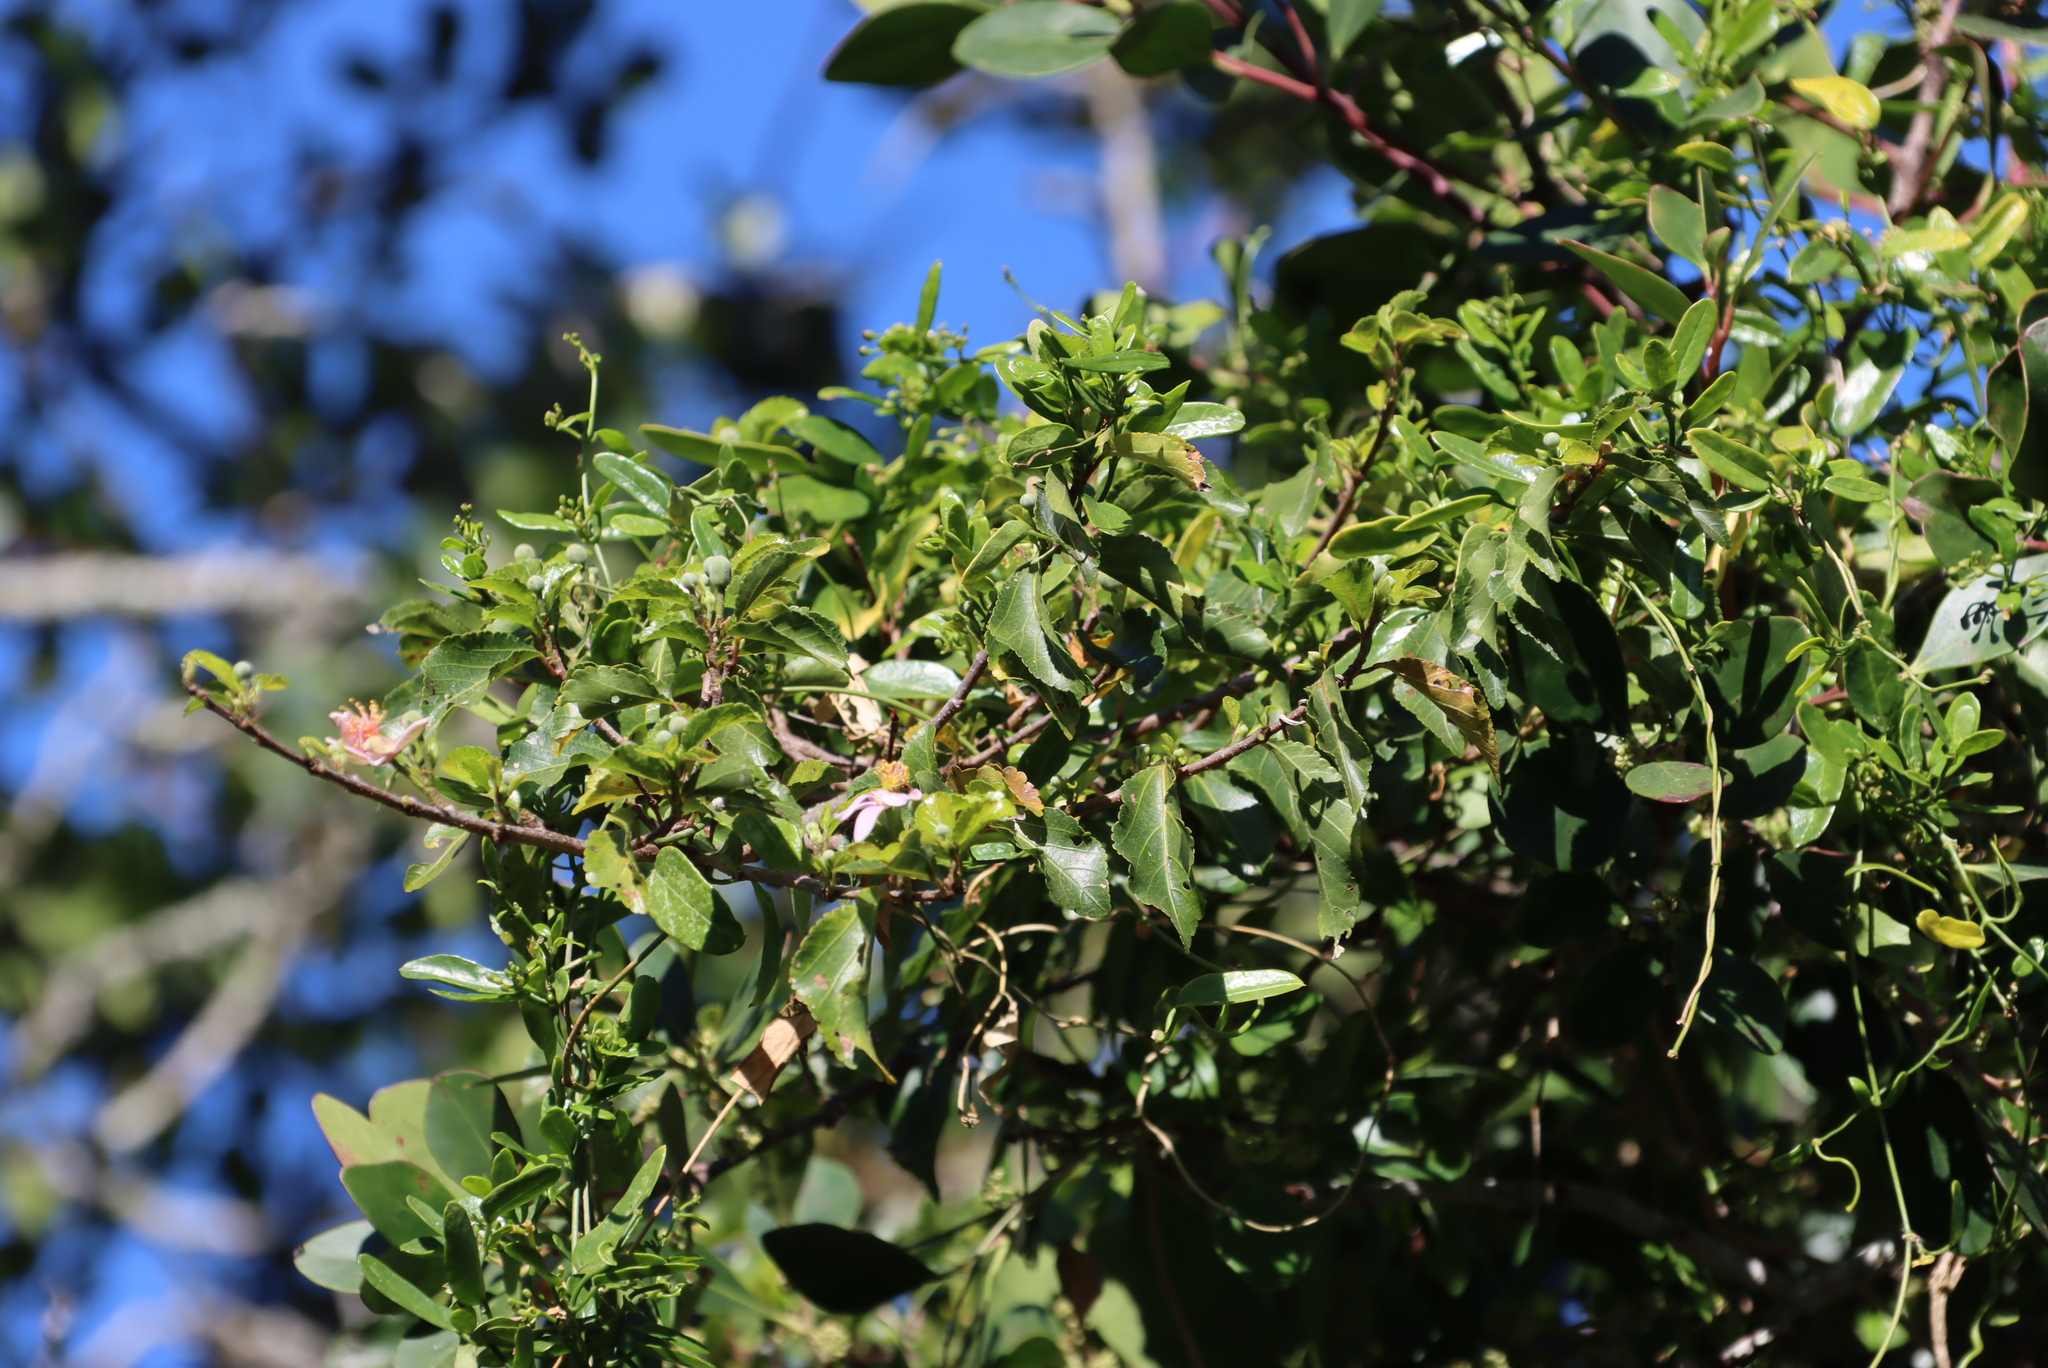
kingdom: Plantae
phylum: Tracheophyta
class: Magnoliopsida
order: Malvales
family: Malvaceae
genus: Grewia
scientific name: Grewia occidentalis
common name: Crossberry
